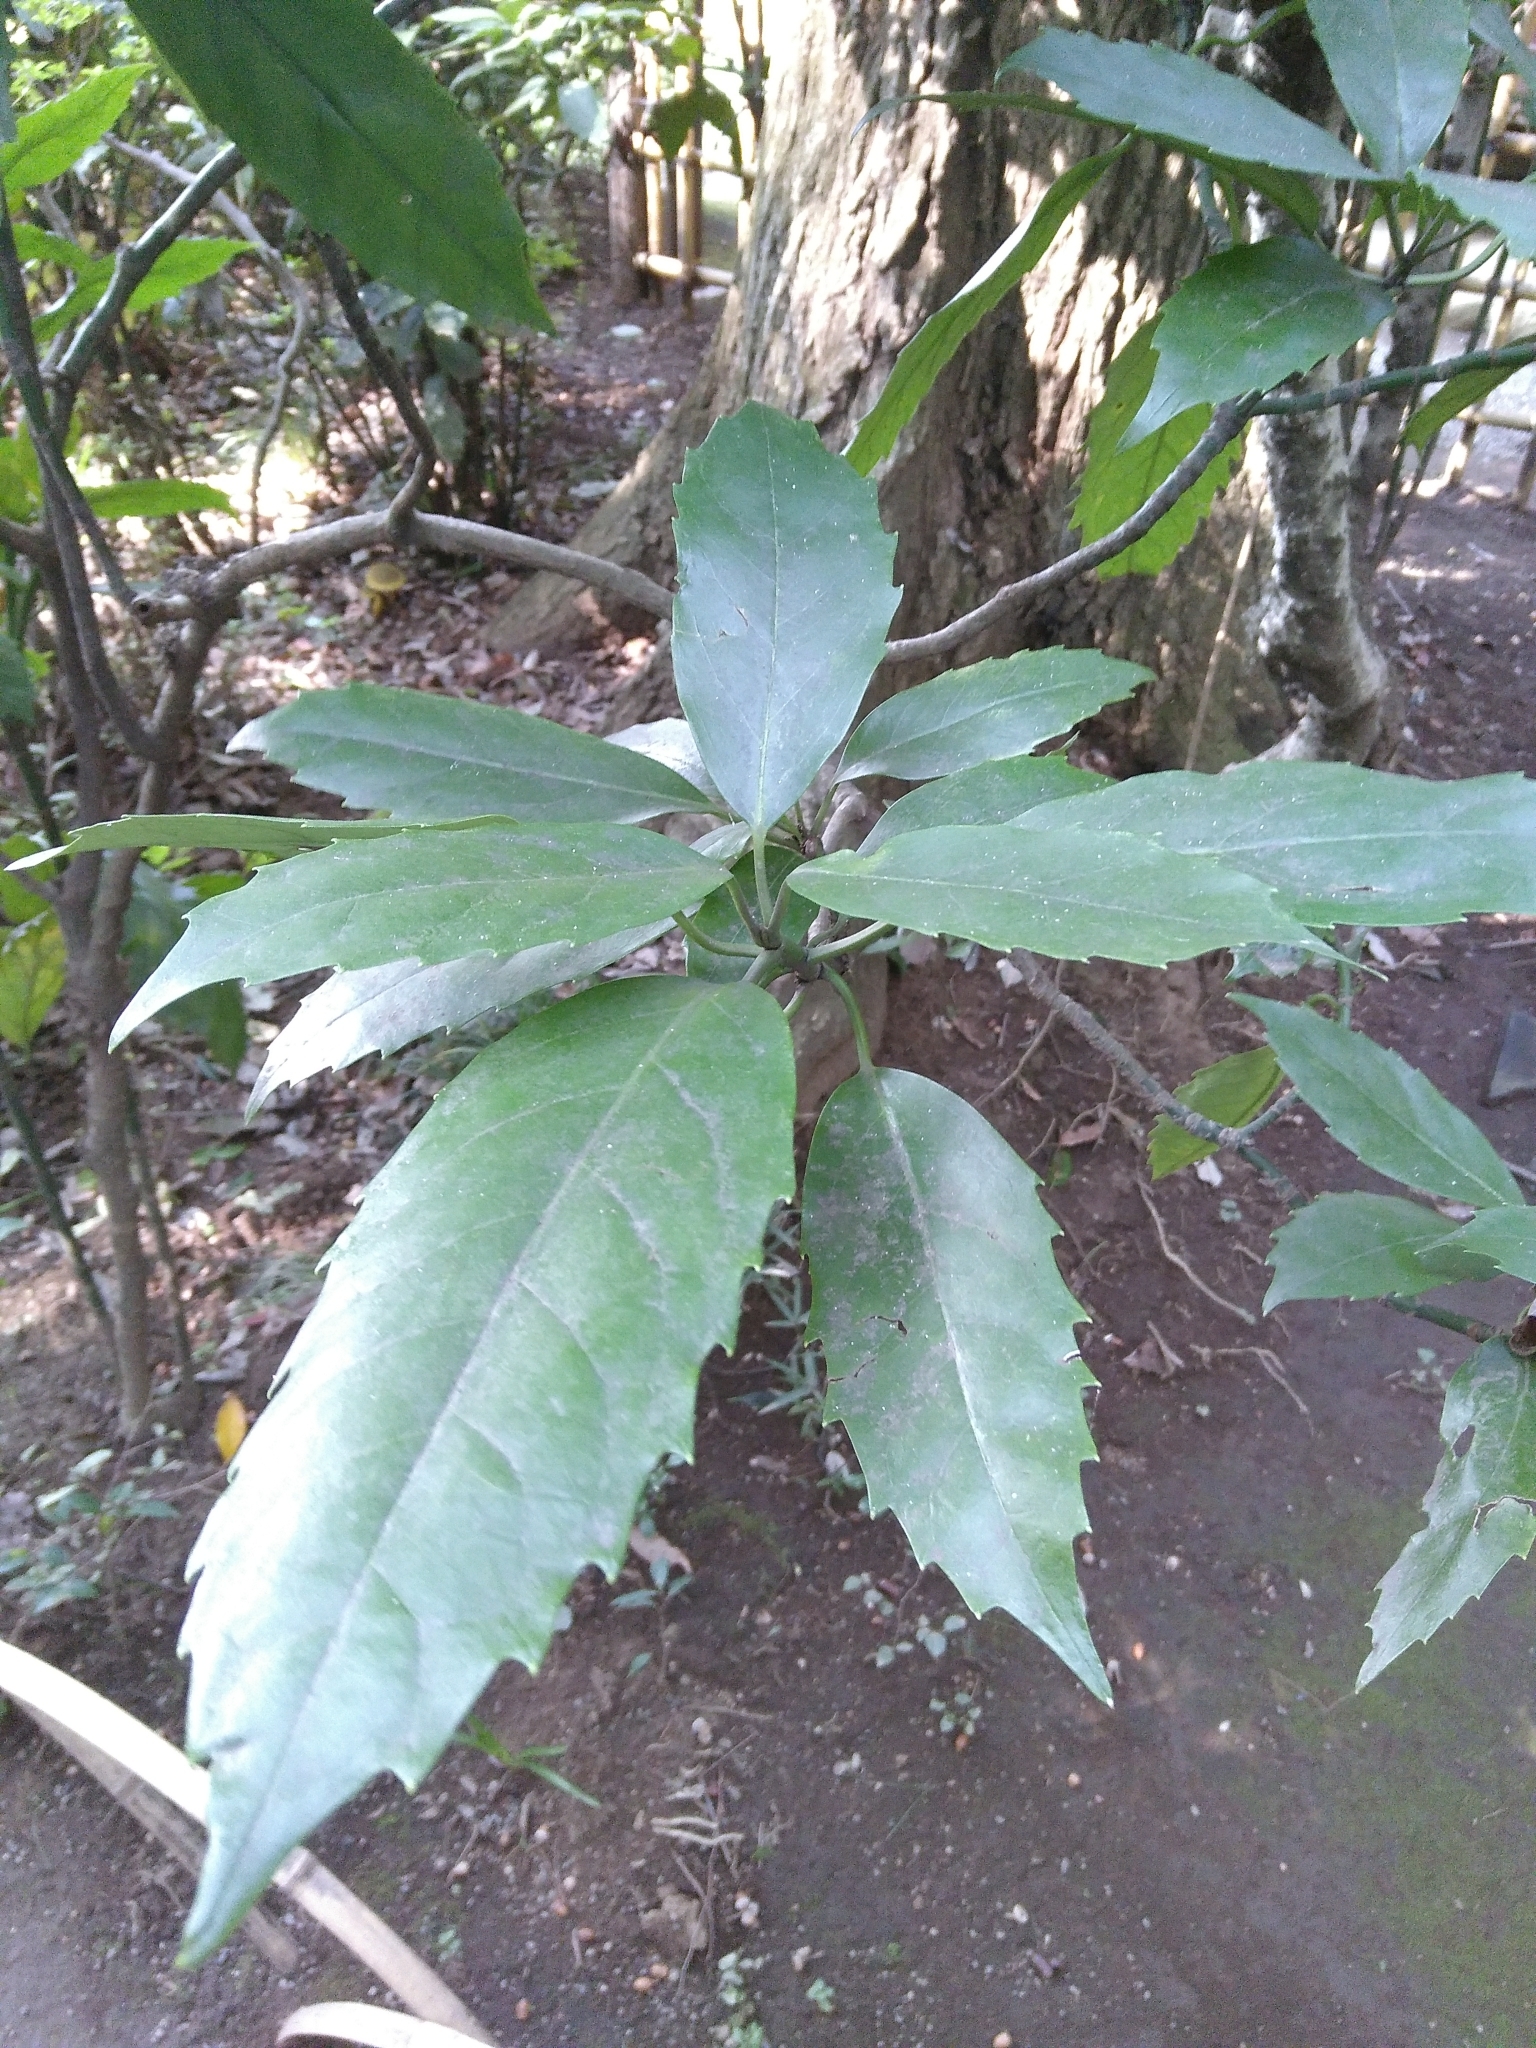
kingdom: Plantae
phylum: Tracheophyta
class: Magnoliopsida
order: Garryales
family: Garryaceae
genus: Aucuba
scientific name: Aucuba japonica
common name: Spotted-laurel
